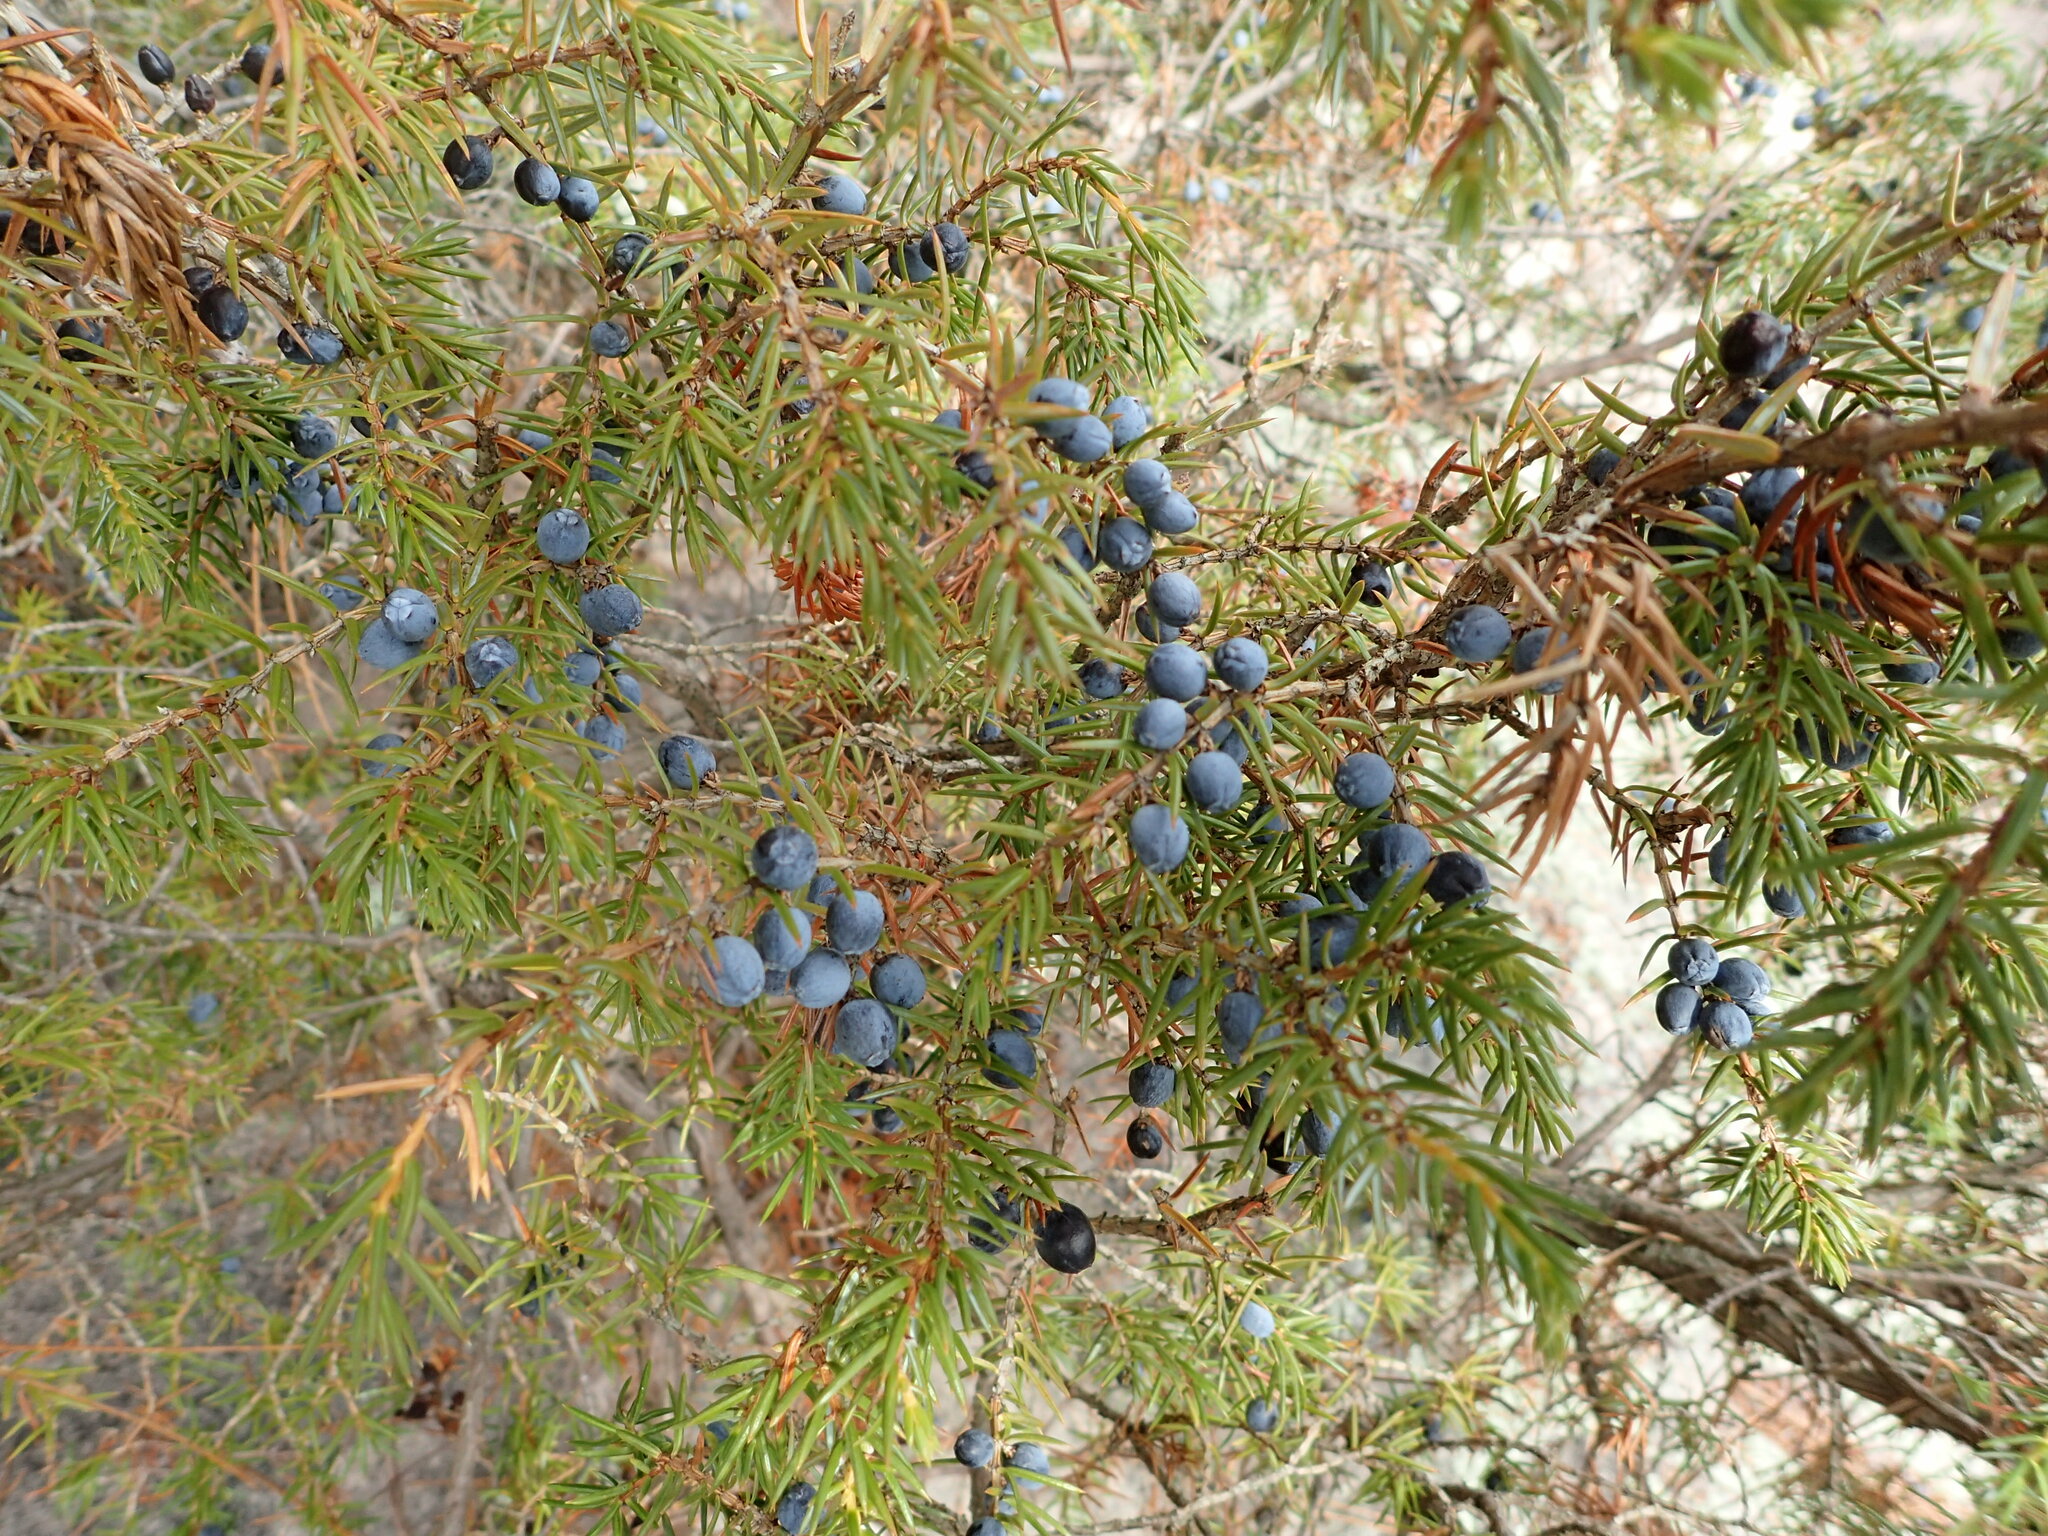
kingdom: Plantae
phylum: Tracheophyta
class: Pinopsida
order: Pinales
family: Cupressaceae
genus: Juniperus
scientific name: Juniperus communis
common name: Common juniper
